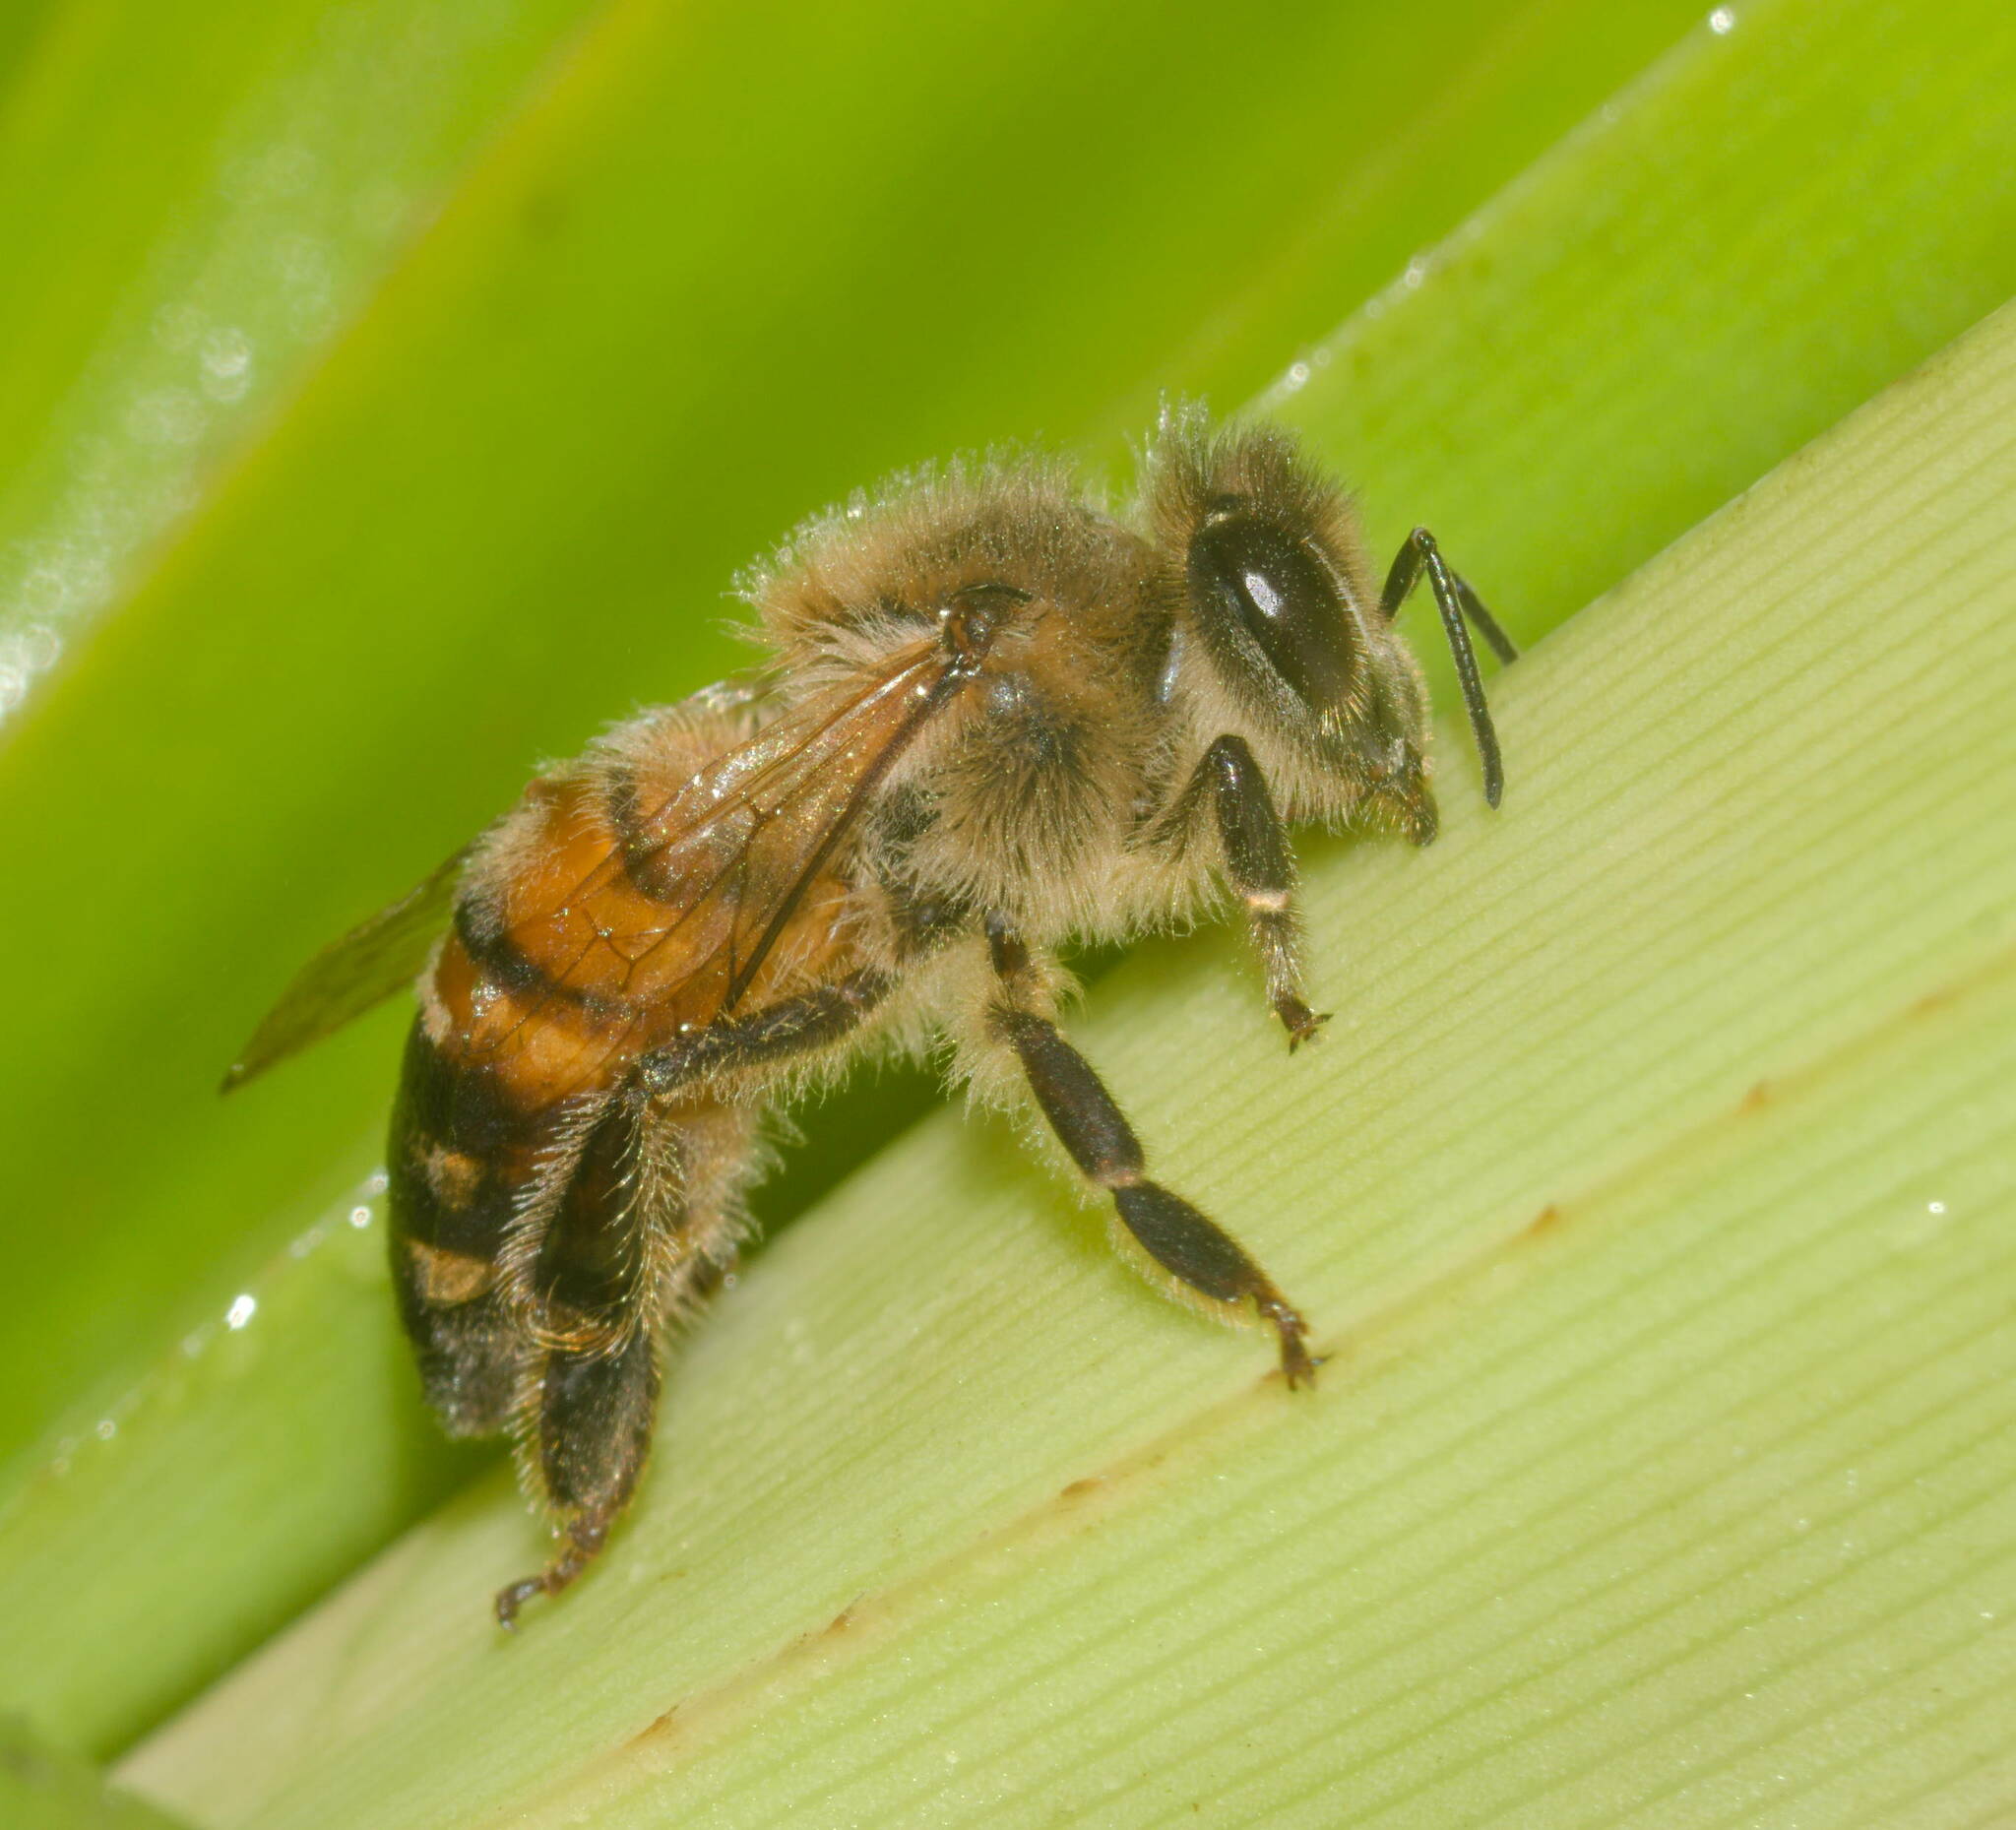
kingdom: Animalia
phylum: Arthropoda
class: Insecta
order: Hymenoptera
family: Apidae
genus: Apis
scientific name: Apis mellifera
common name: Honey bee
